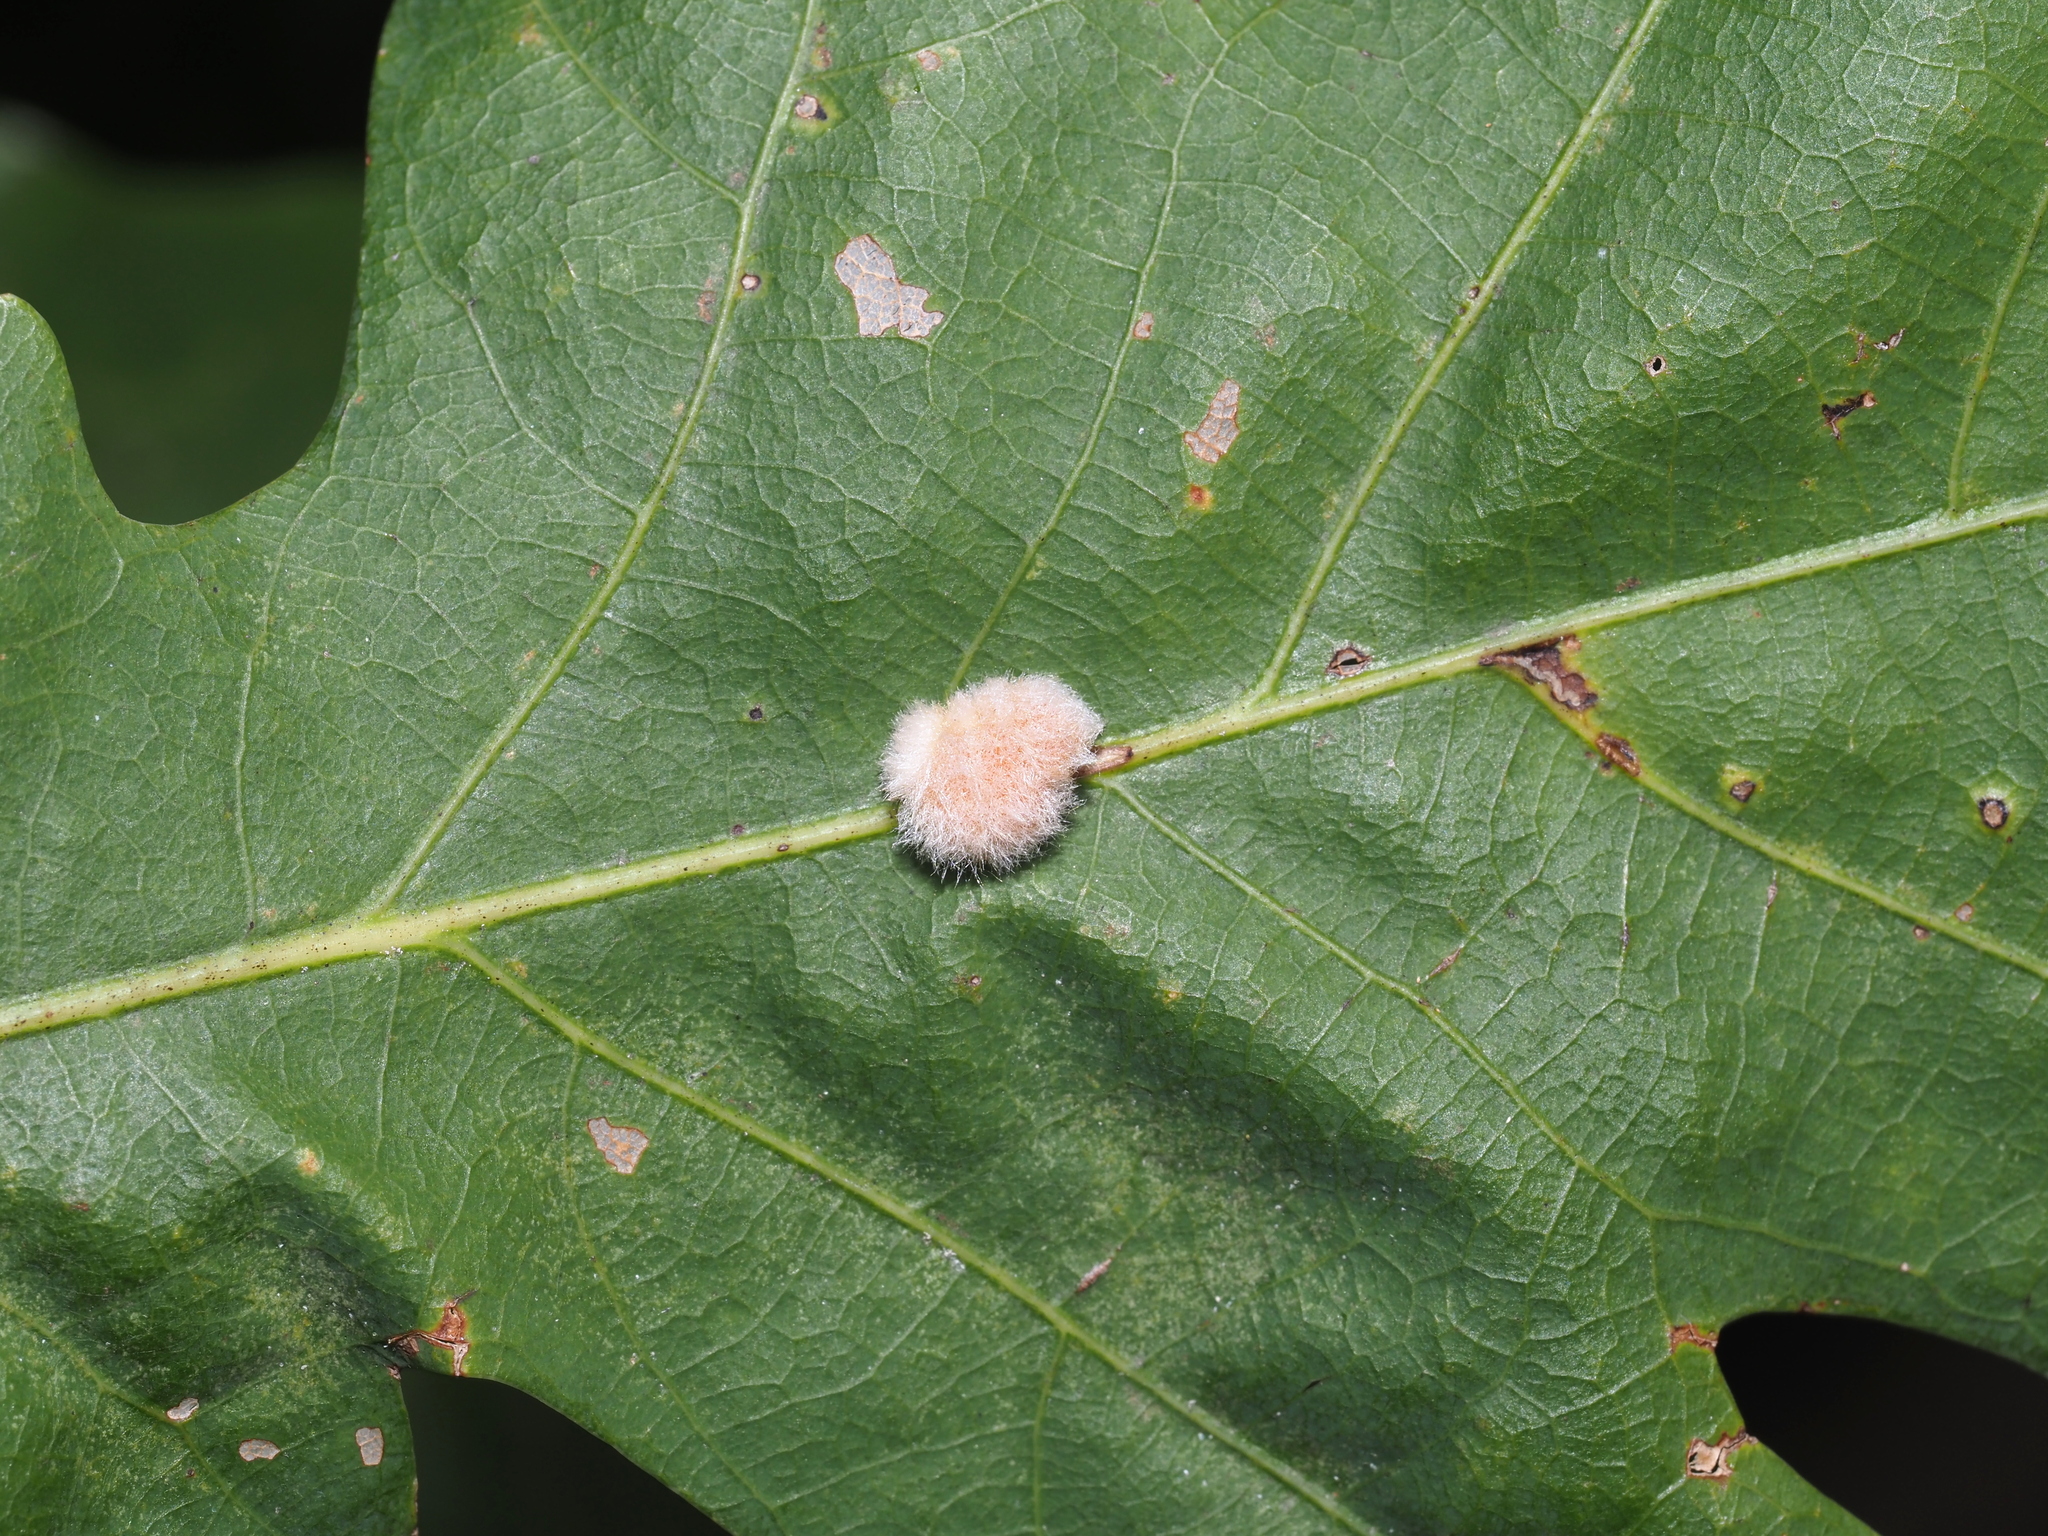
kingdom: Animalia
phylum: Arthropoda
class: Insecta
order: Hymenoptera
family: Cynipidae
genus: Andricus
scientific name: Andricus quercusflocci
